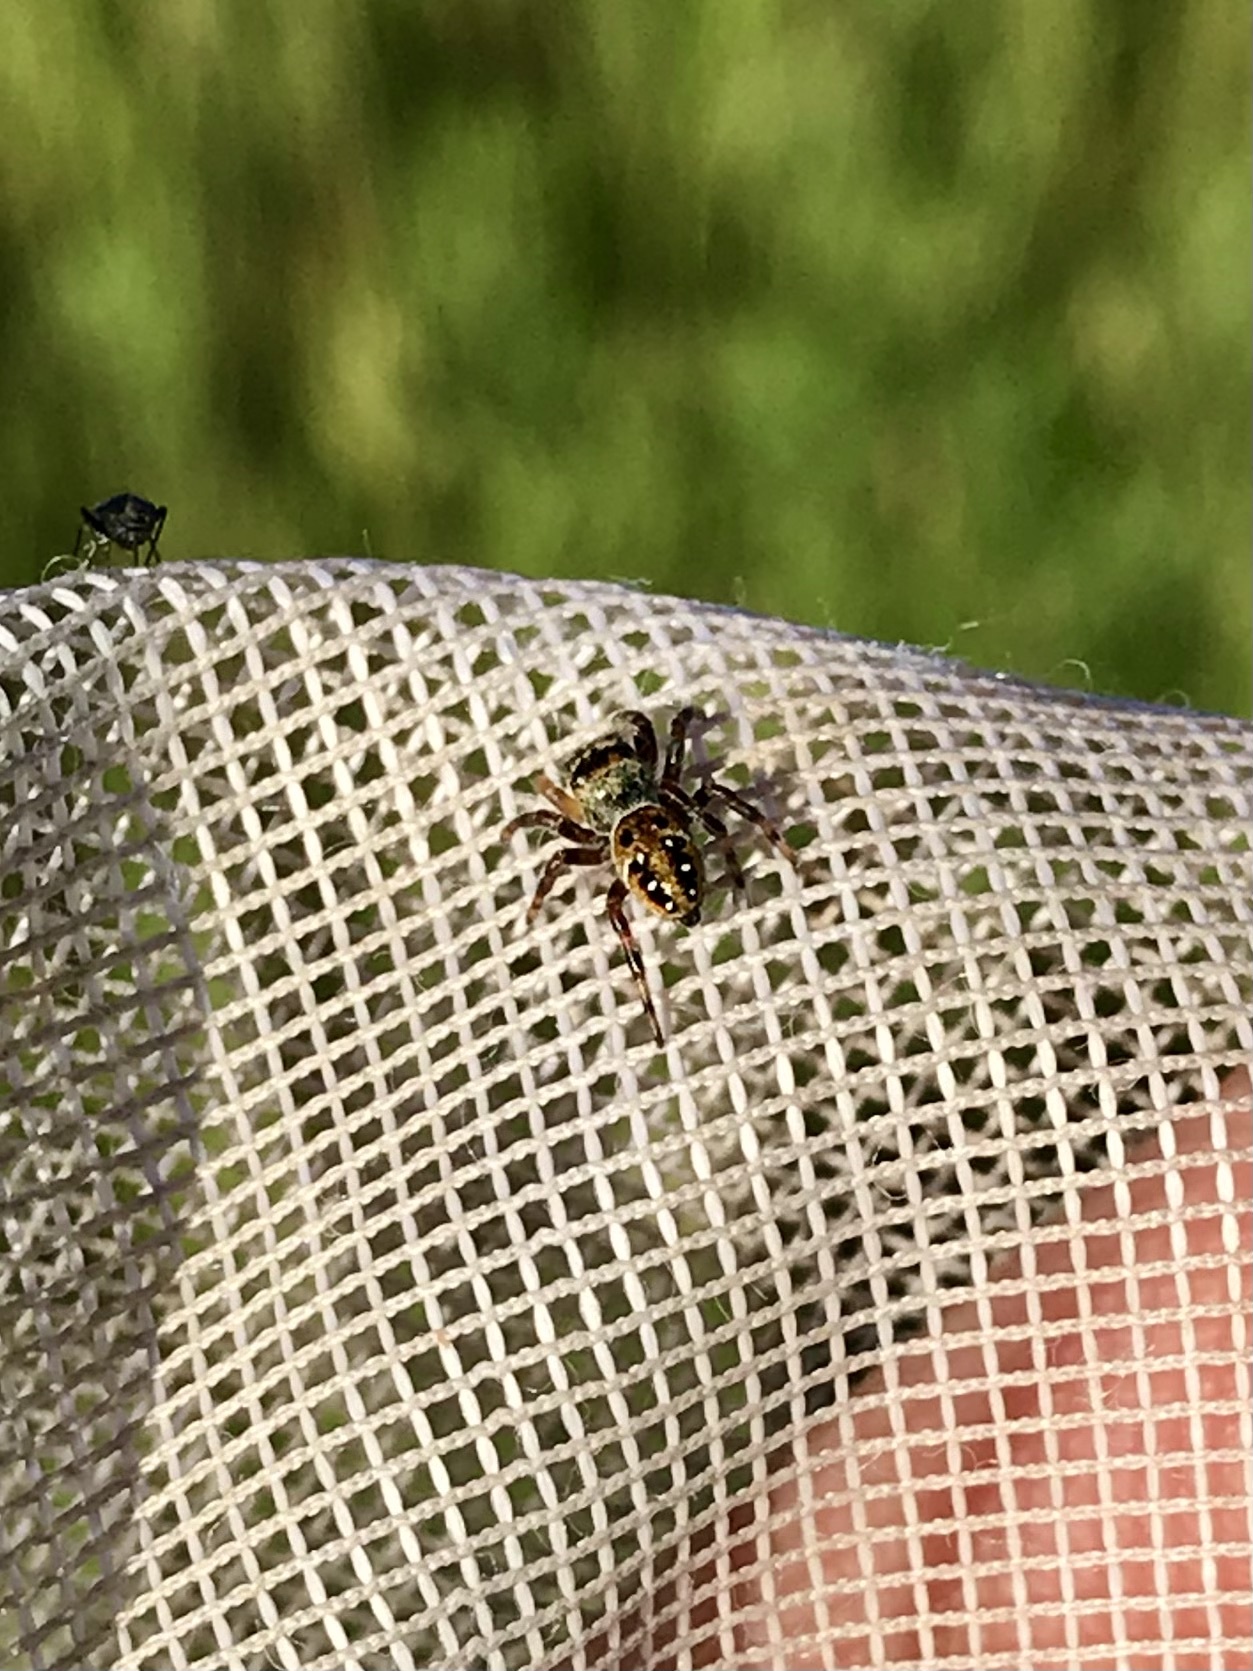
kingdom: Animalia
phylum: Arthropoda
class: Arachnida
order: Araneae
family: Salticidae
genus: Phidippus
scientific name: Phidippus clarus
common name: Brilliant jumping spider
